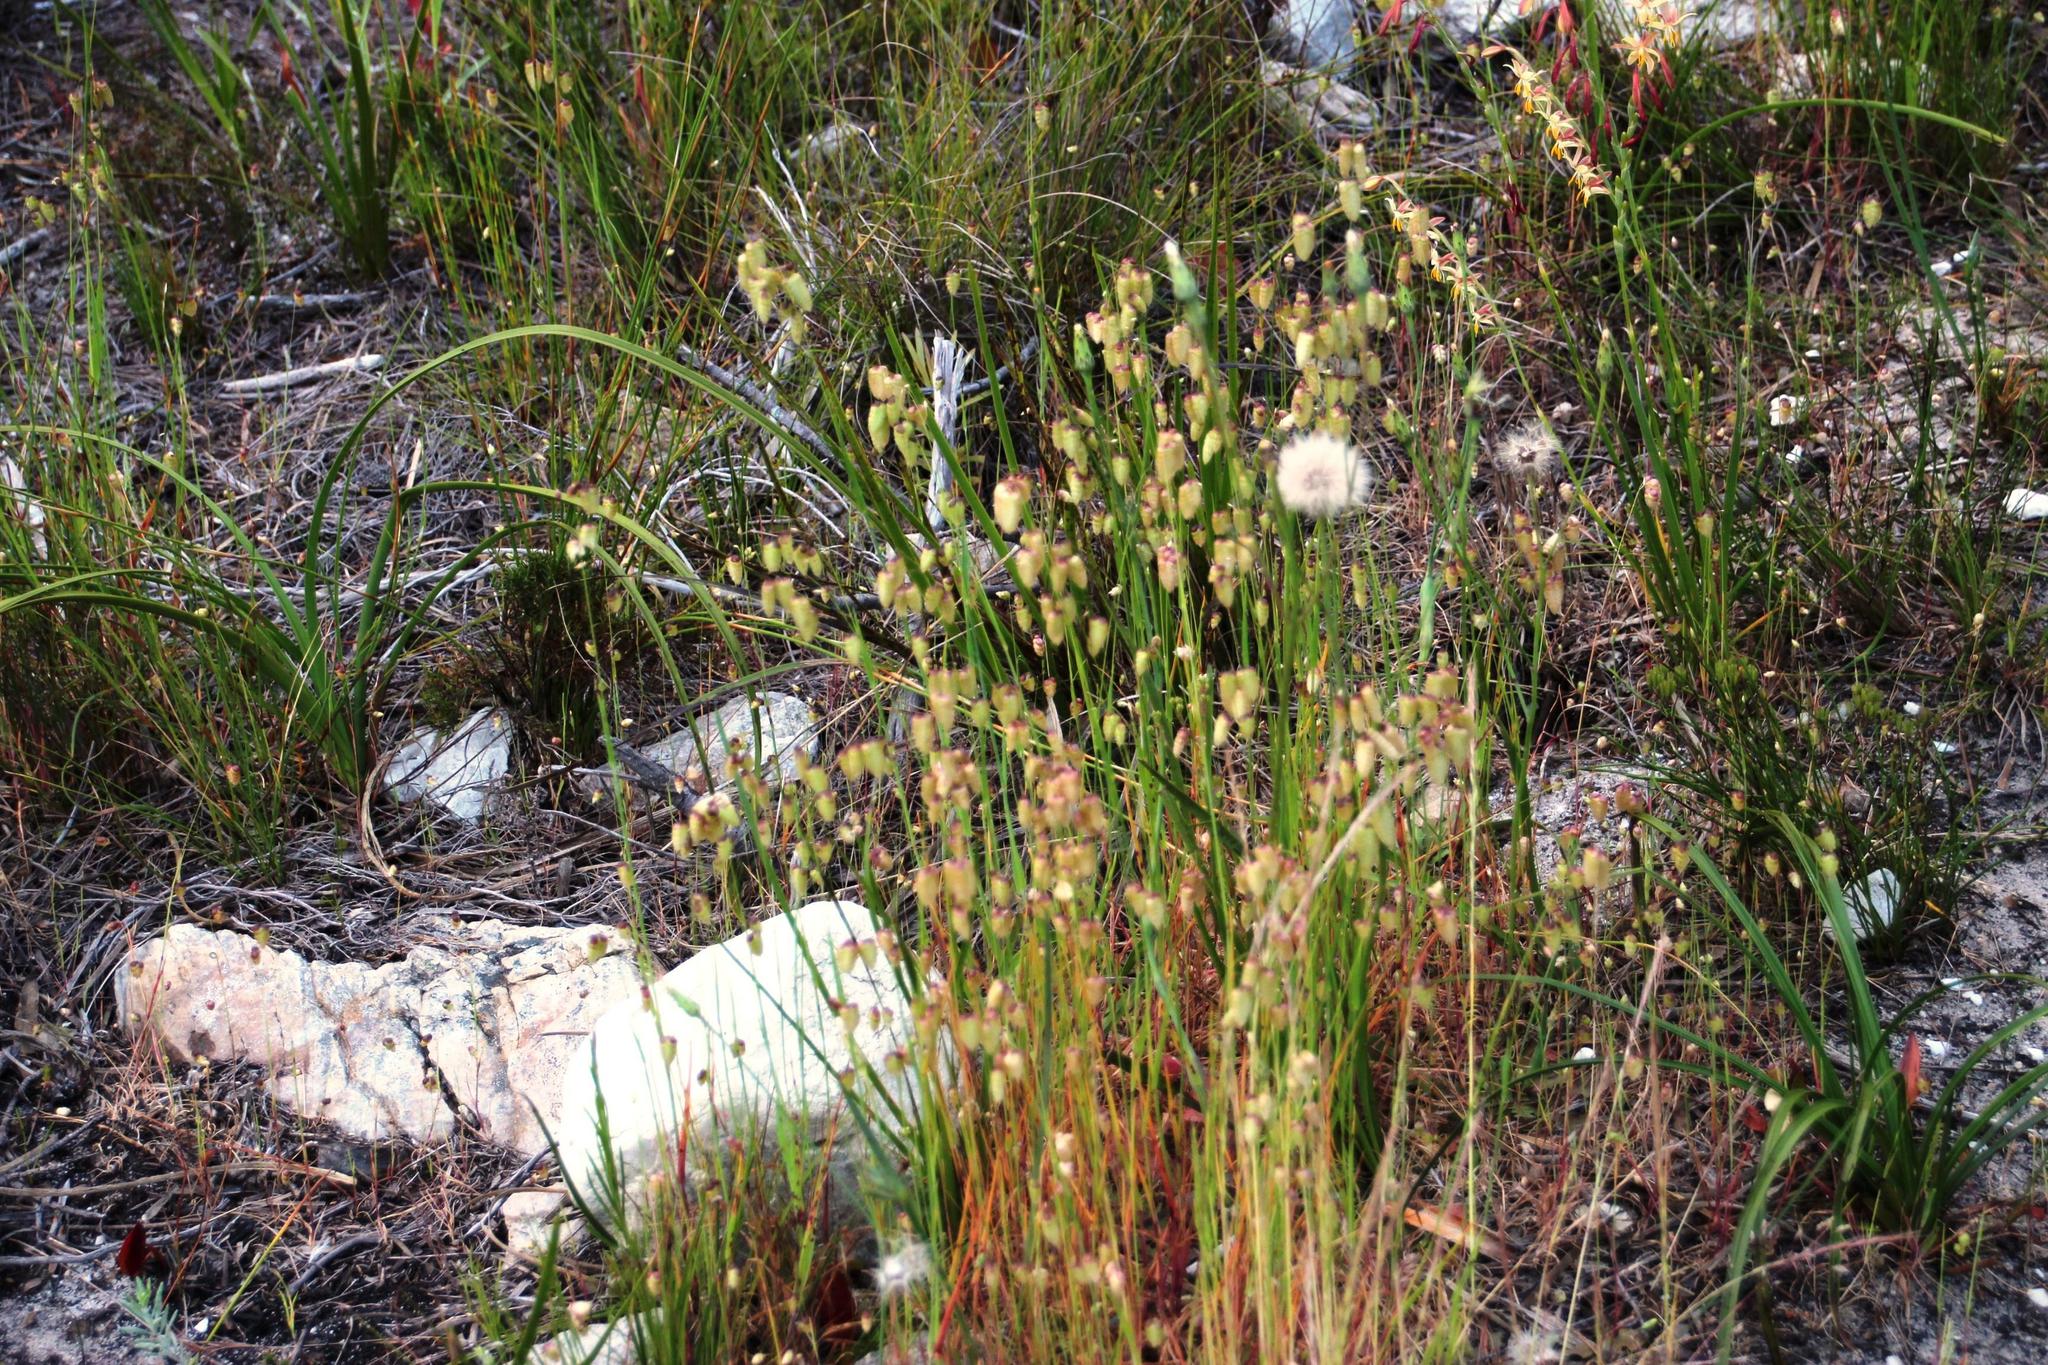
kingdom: Plantae
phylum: Tracheophyta
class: Liliopsida
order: Poales
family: Poaceae
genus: Briza
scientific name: Briza maxima
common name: Big quakinggrass
